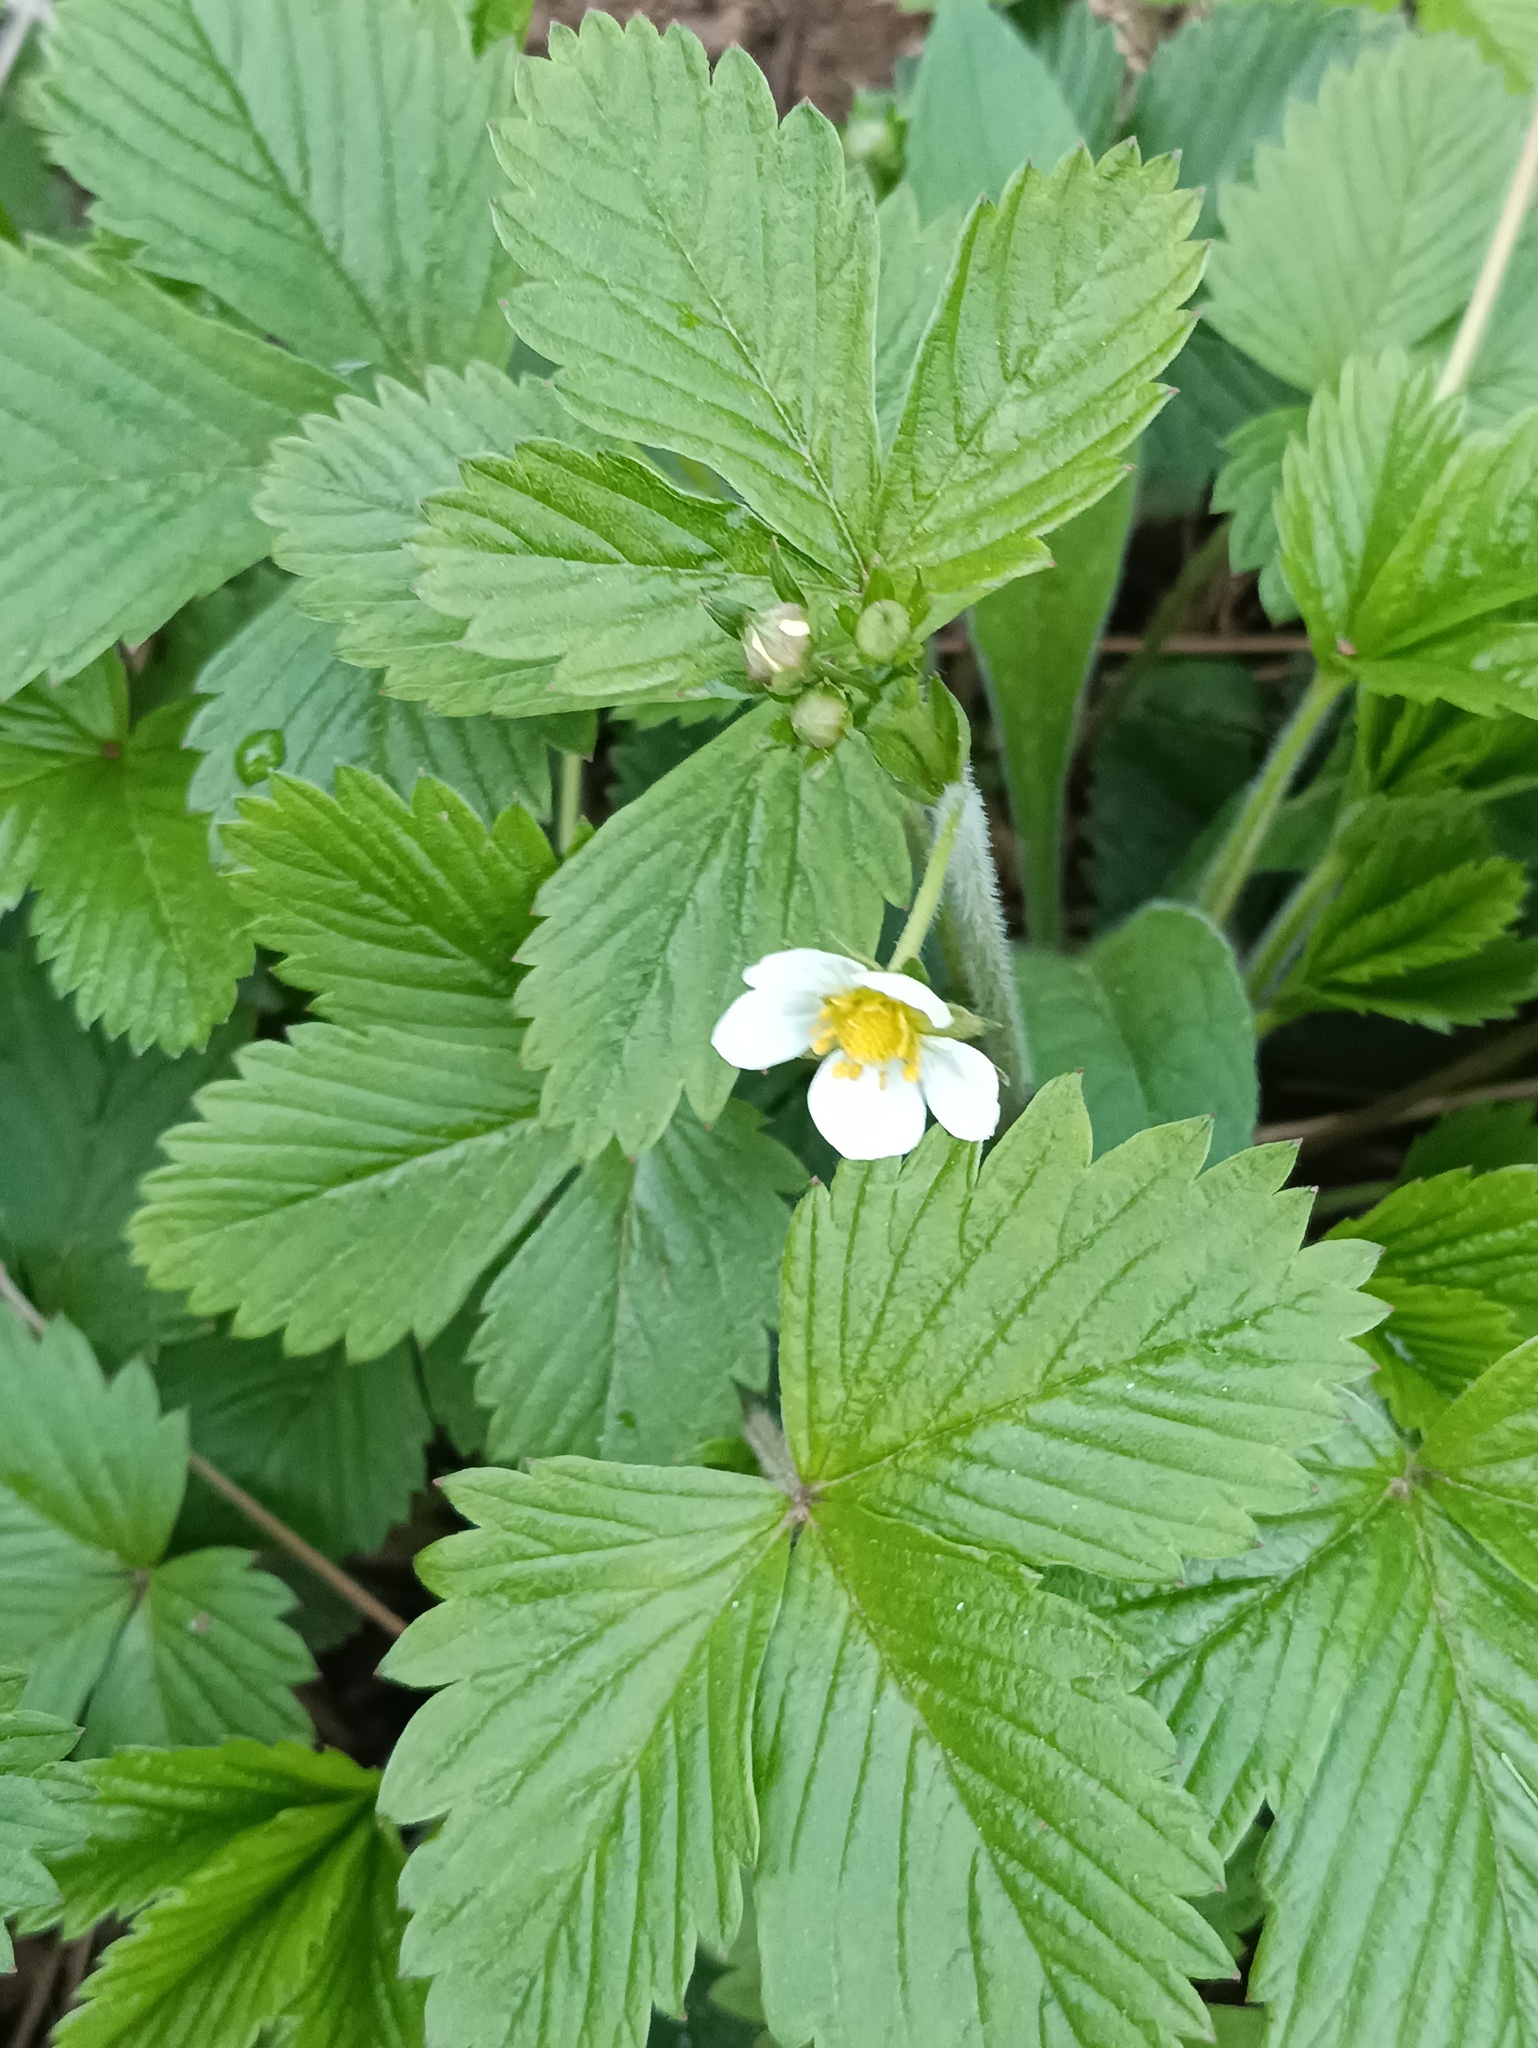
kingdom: Plantae
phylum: Tracheophyta
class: Magnoliopsida
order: Rosales
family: Rosaceae
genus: Fragaria
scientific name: Fragaria vesca
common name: Wild strawberry
